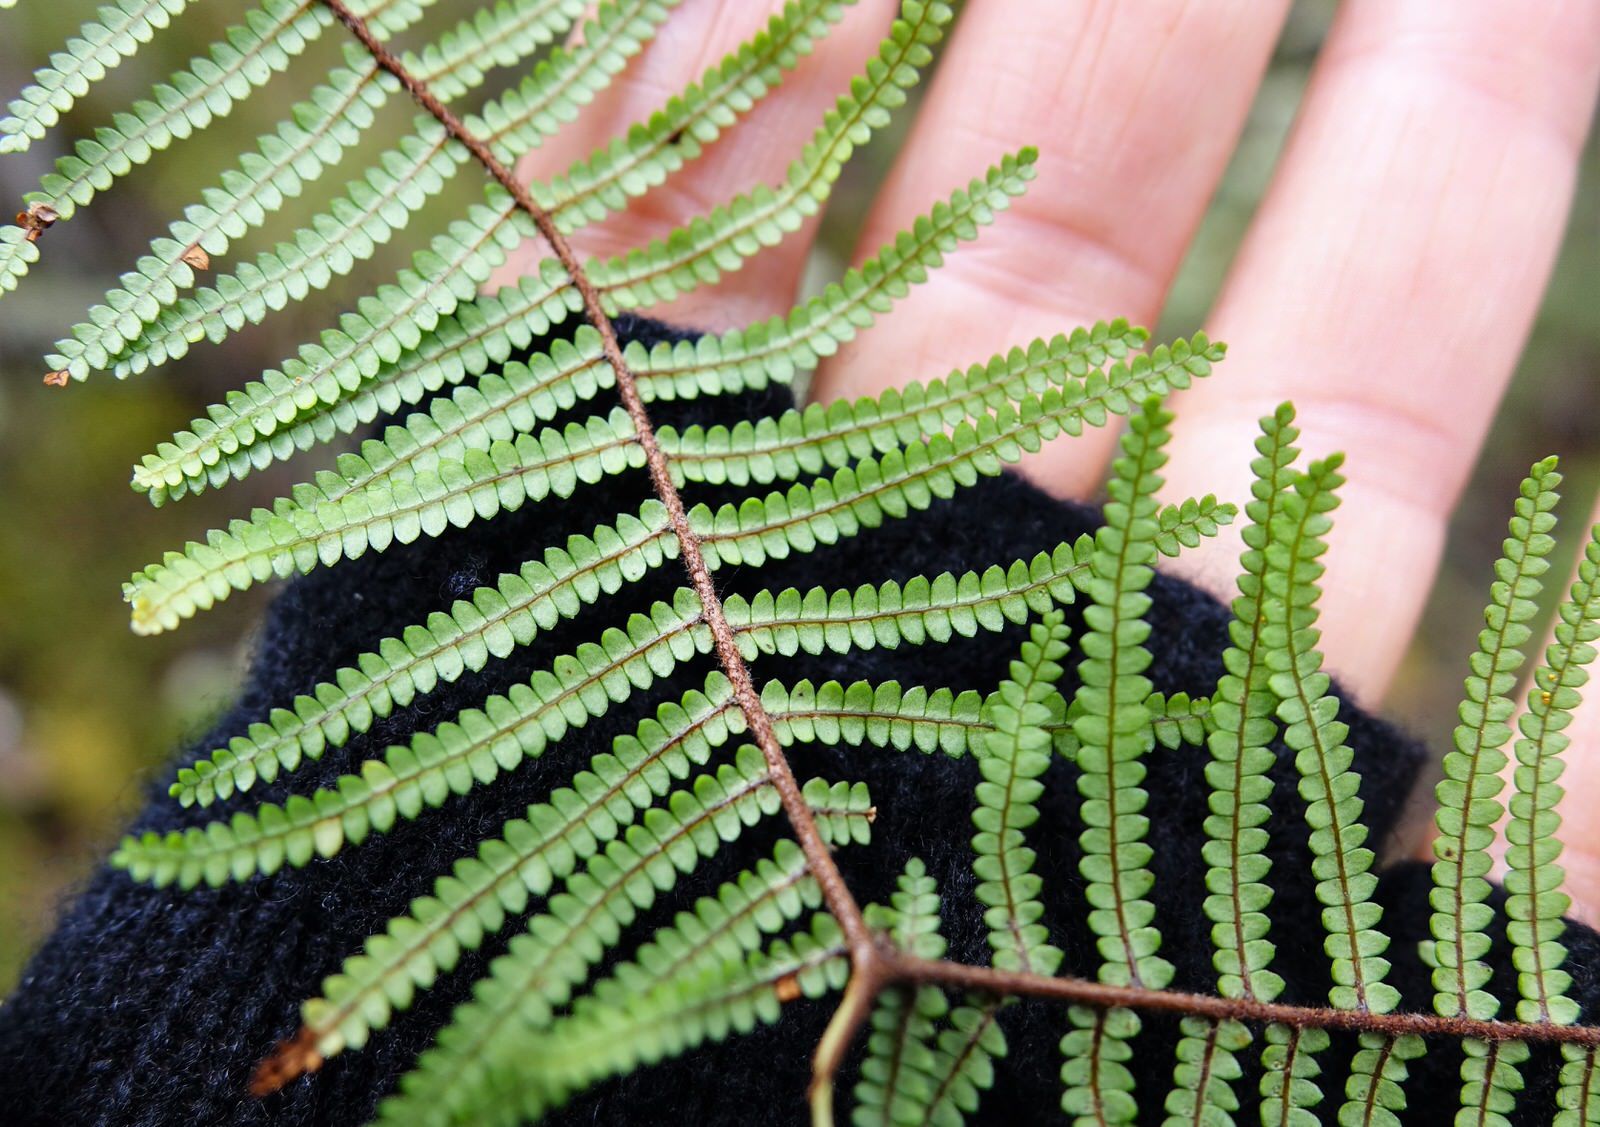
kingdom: Plantae
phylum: Tracheophyta
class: Polypodiopsida
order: Gleicheniales
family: Gleicheniaceae
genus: Gleichenia
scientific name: Gleichenia microphylla
